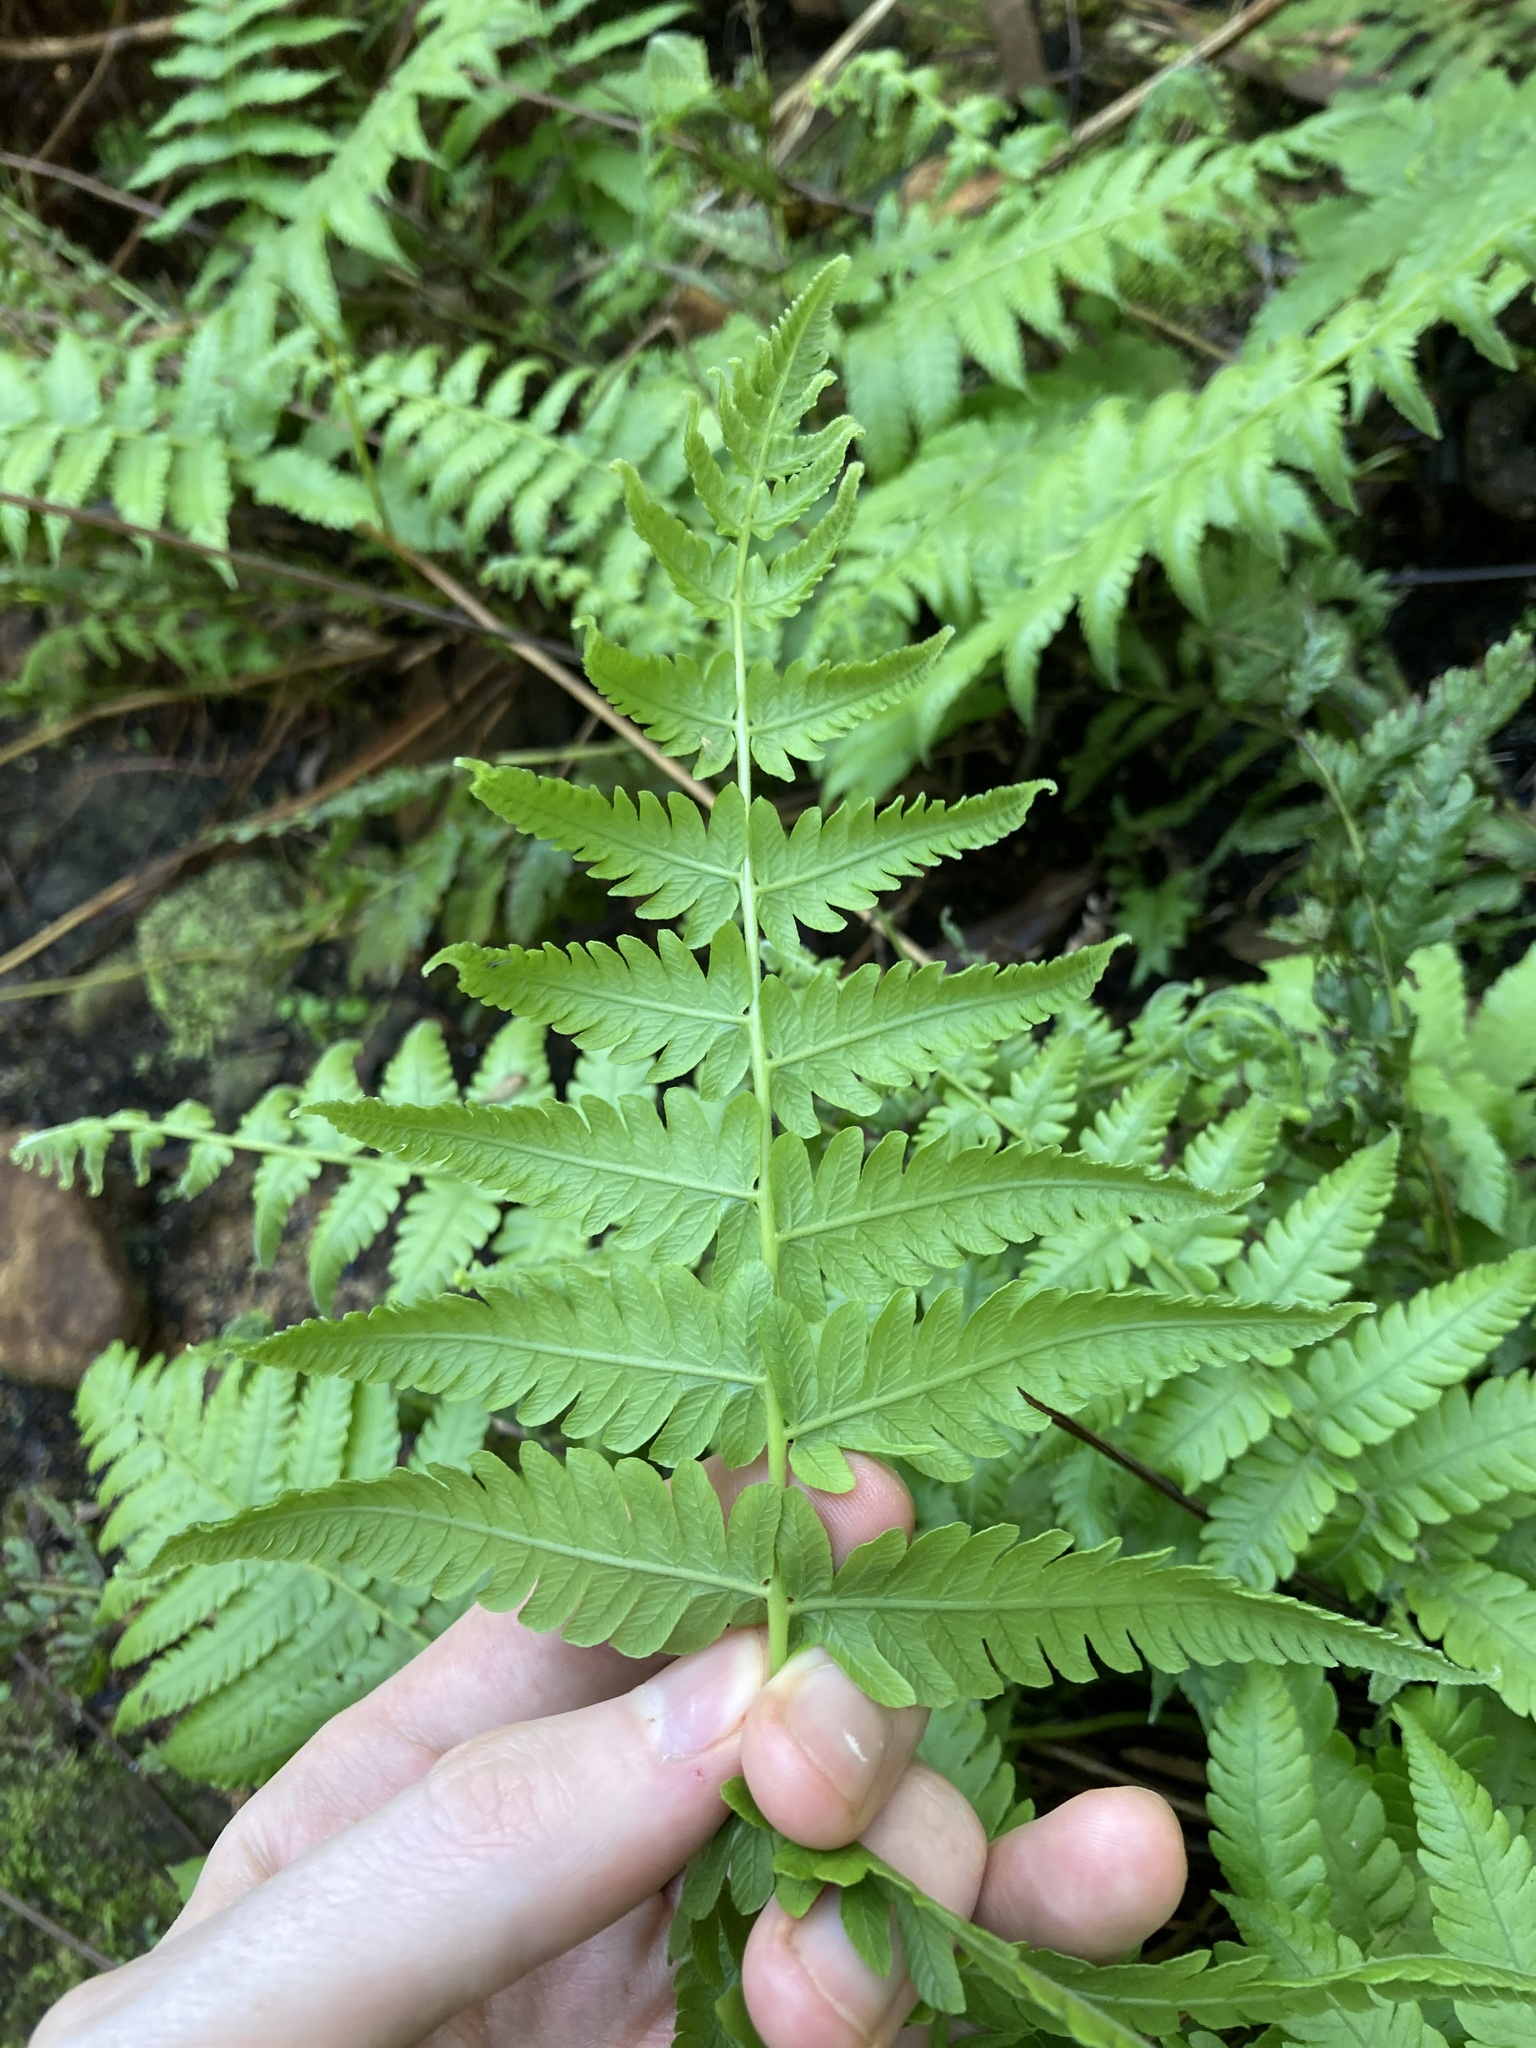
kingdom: Plantae
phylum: Tracheophyta
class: Polypodiopsida
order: Polypodiales
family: Thelypteridaceae
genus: Christella
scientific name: Christella dentata
